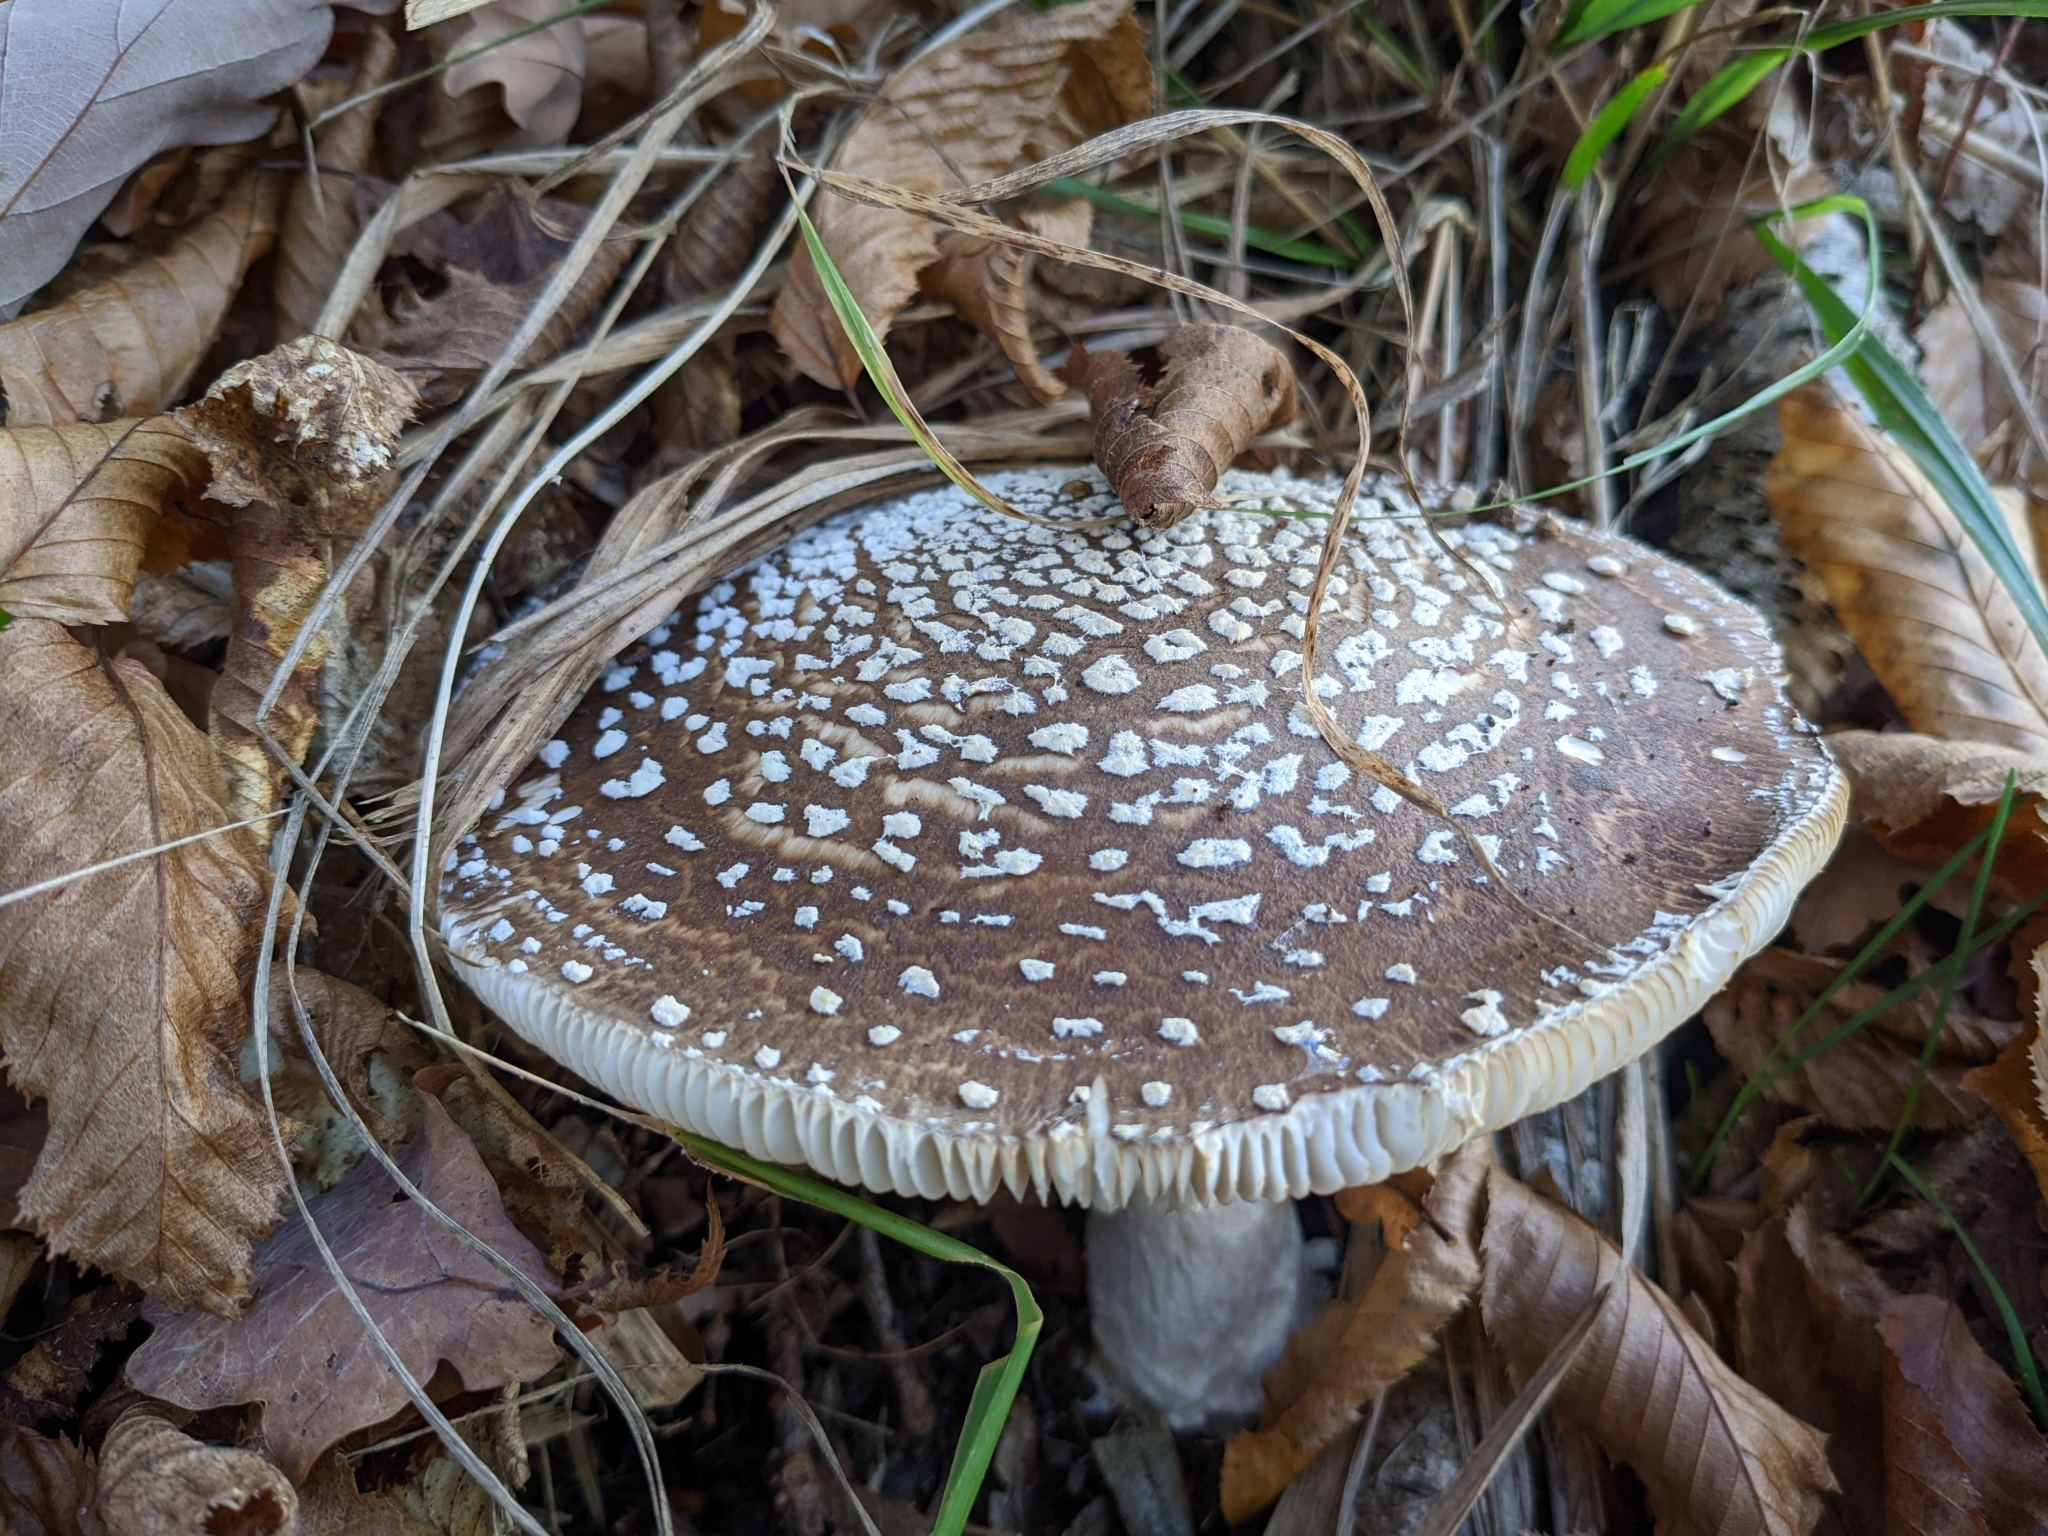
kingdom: Fungi
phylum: Basidiomycota
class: Agaricomycetes
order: Agaricales
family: Amanitaceae
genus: Amanita
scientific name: Amanita pantherina
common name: Panthercap
